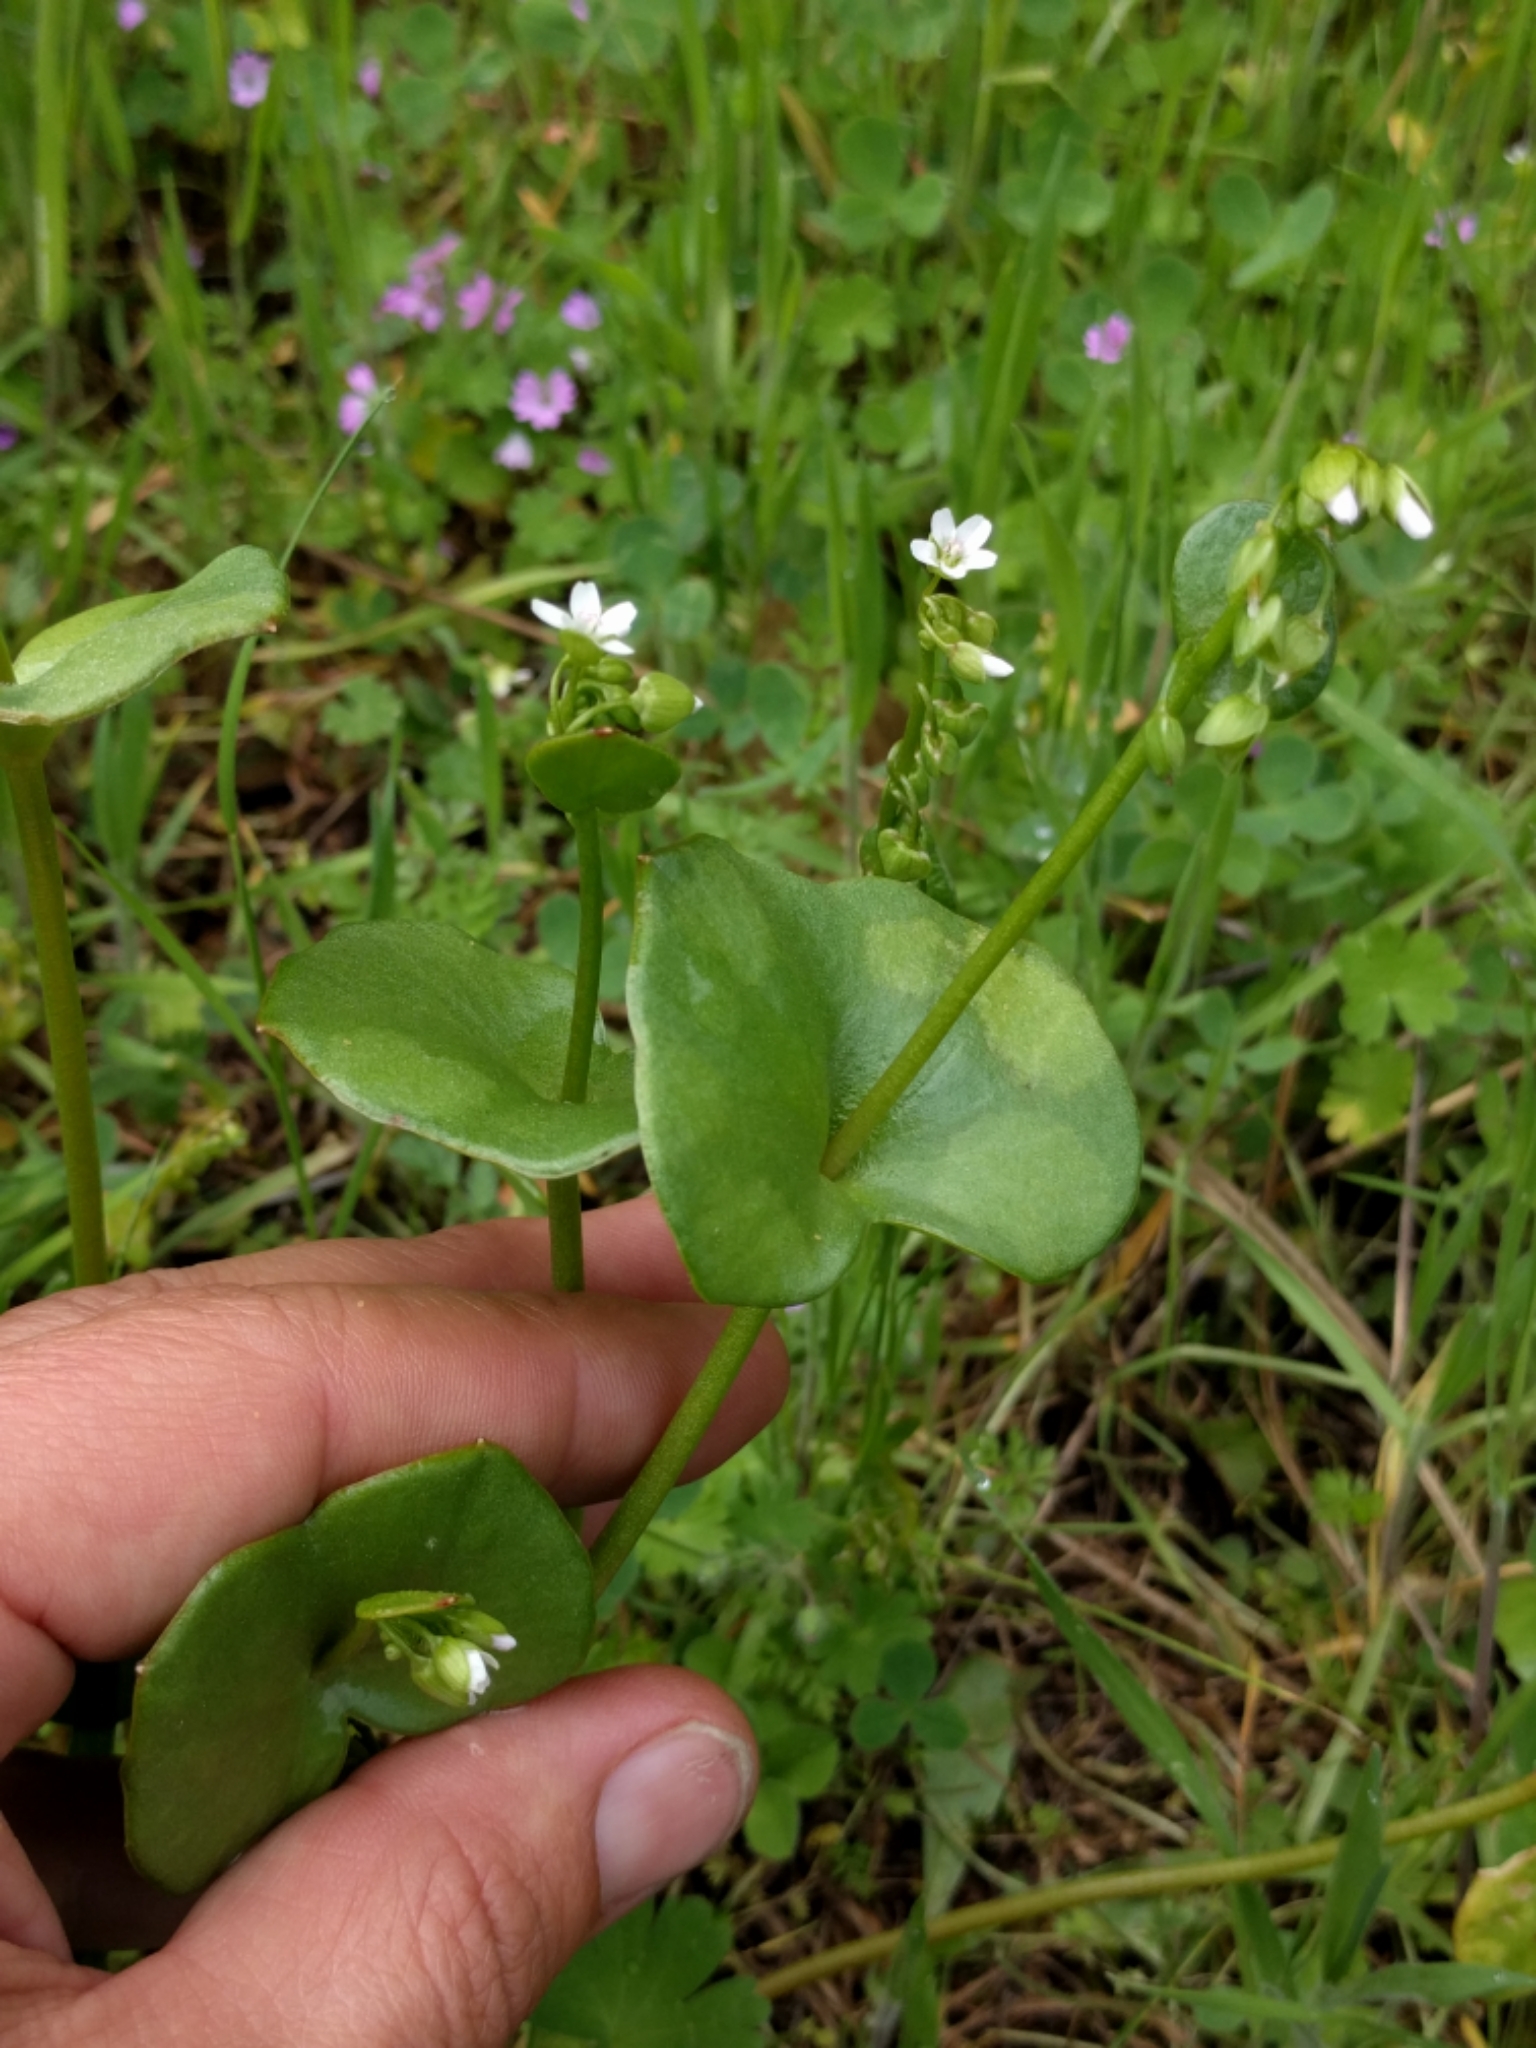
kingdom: Plantae
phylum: Tracheophyta
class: Magnoliopsida
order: Caryophyllales
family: Montiaceae
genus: Claytonia
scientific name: Claytonia perfoliata
